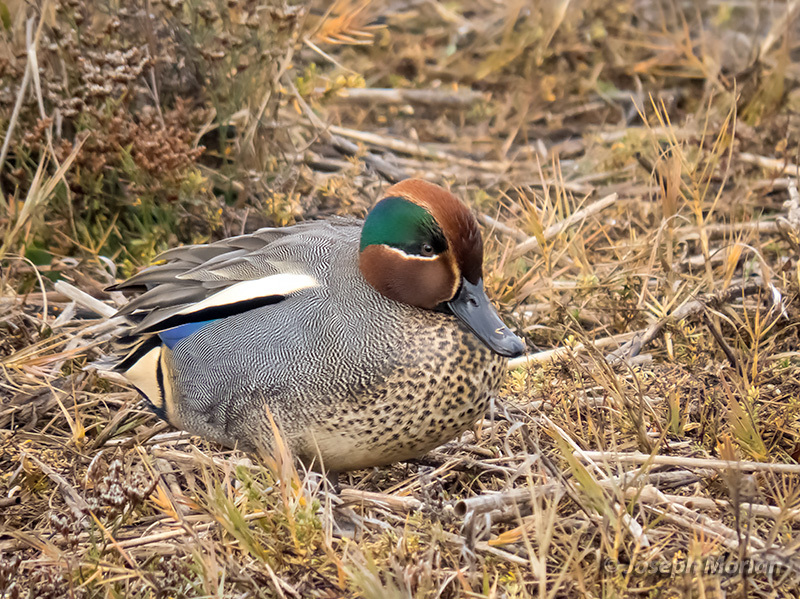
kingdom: Animalia
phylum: Chordata
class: Aves
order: Anseriformes
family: Anatidae
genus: Anas
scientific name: Anas crecca
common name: Eurasian teal
